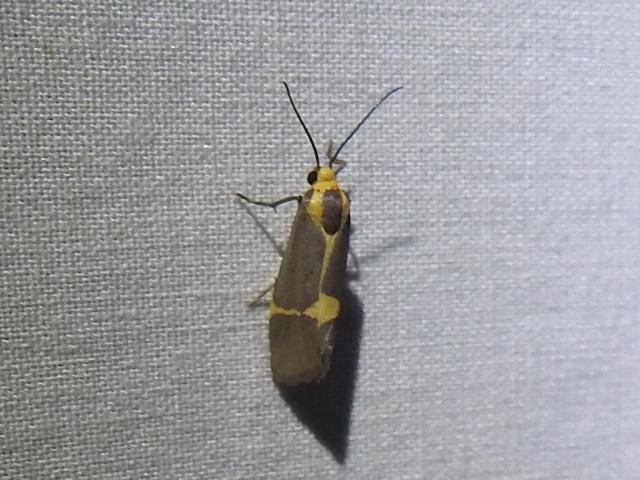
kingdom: Animalia
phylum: Arthropoda
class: Insecta
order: Lepidoptera
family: Erebidae
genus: Cisthene
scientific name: Cisthene tenuifascia
